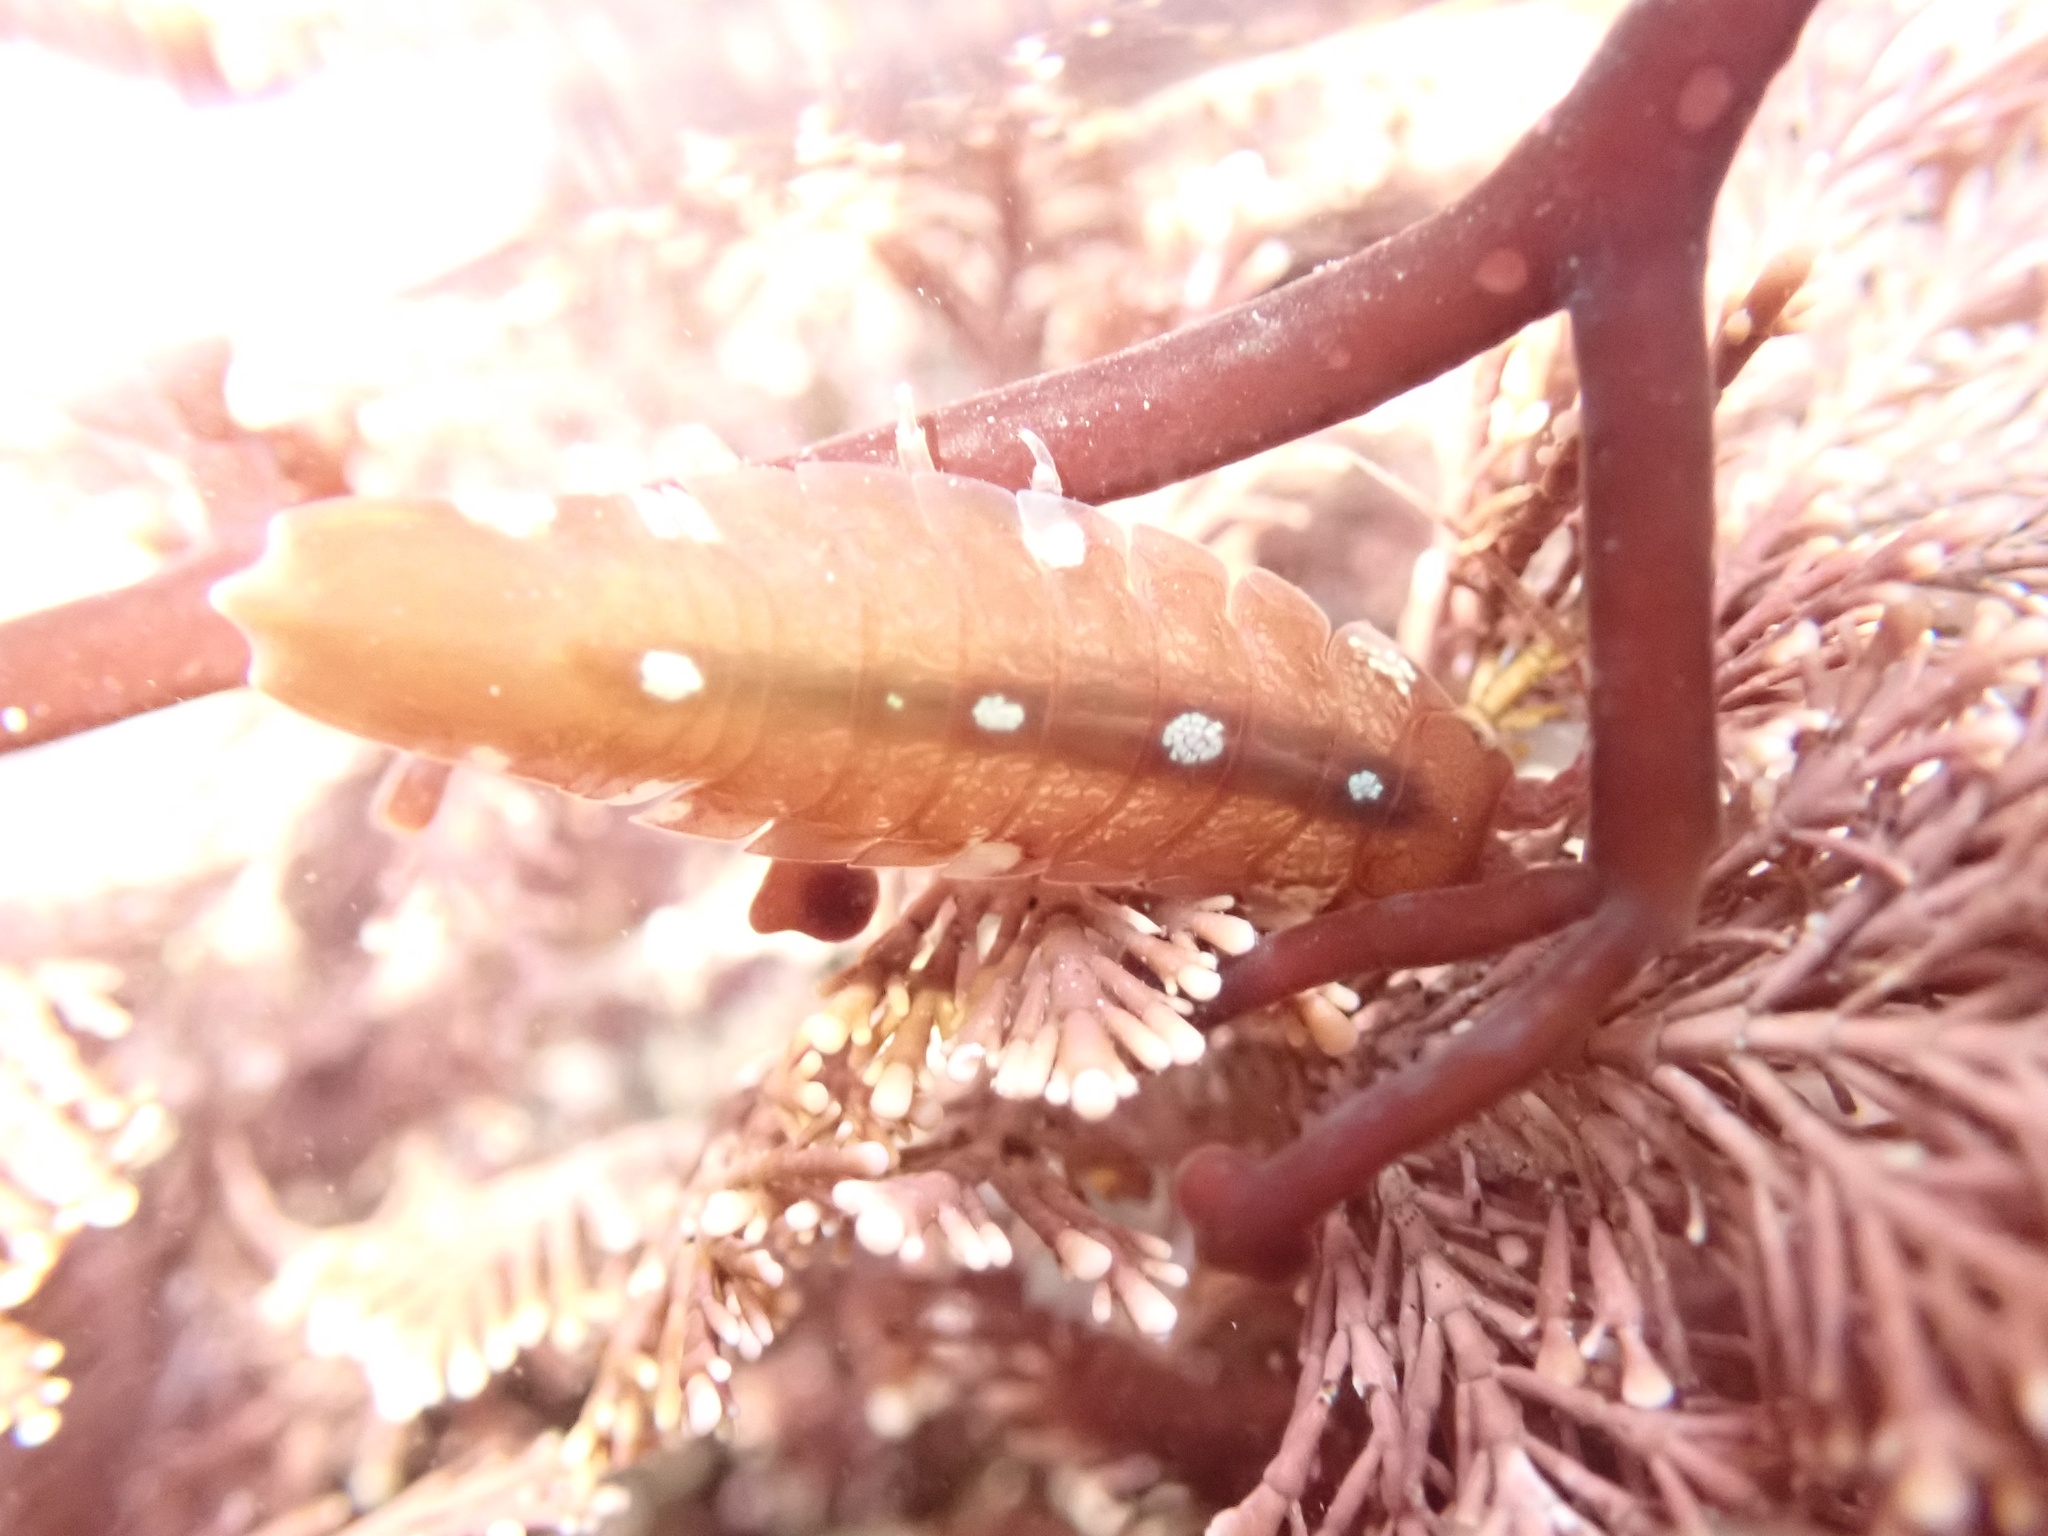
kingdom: Animalia
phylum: Arthropoda
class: Malacostraca
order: Isopoda
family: Idoteidae
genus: Idotea
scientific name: Idotea balthica
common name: Baltic isopod
